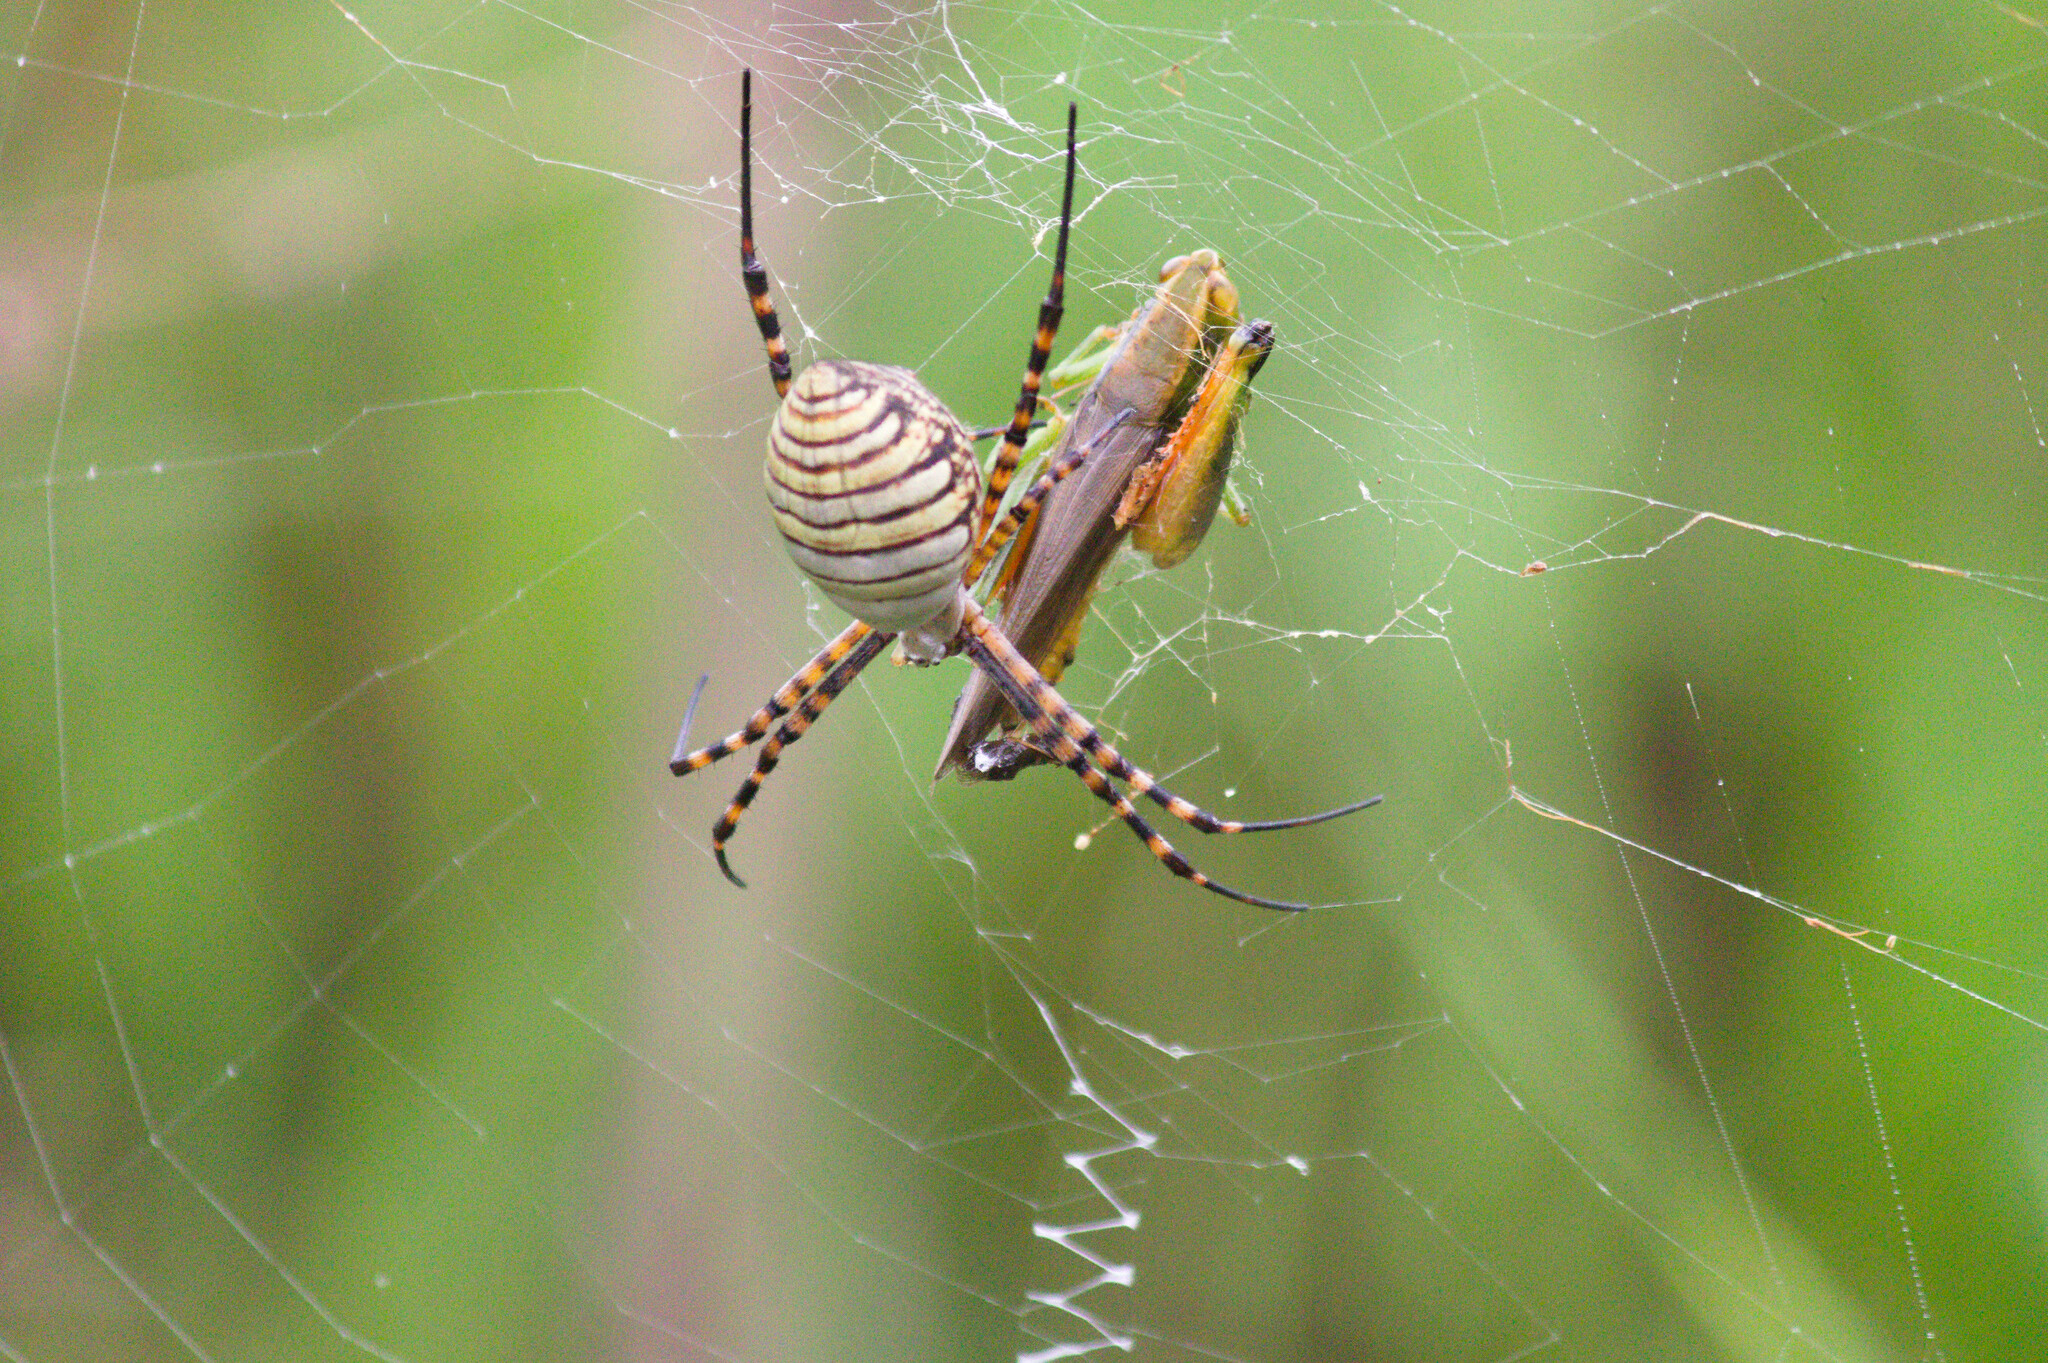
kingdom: Animalia
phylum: Arthropoda
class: Arachnida
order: Araneae
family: Araneidae
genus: Argiope
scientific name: Argiope trifasciata
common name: Banded garden spider
